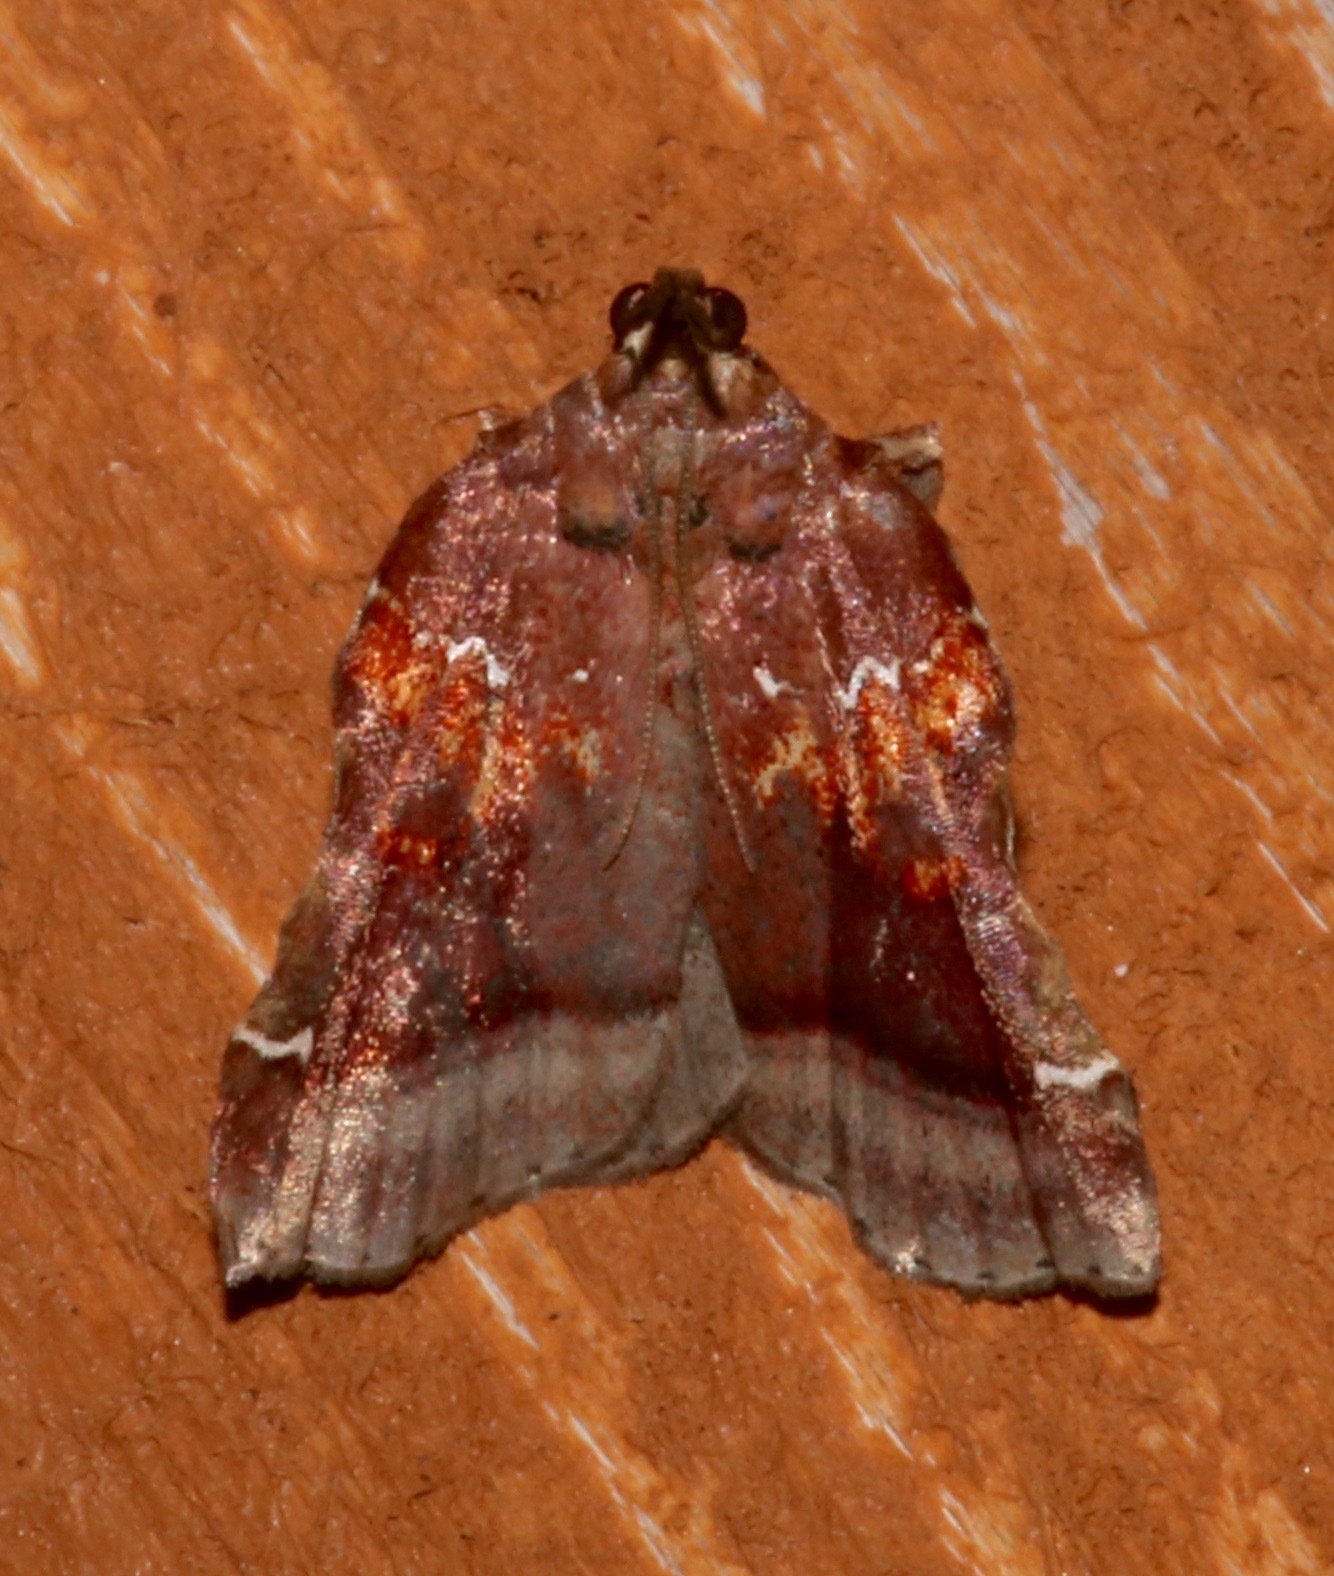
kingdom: Animalia
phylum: Arthropoda
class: Insecta
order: Lepidoptera
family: Pyralidae
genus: Clydonopteron
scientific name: Clydonopteron sacculana
